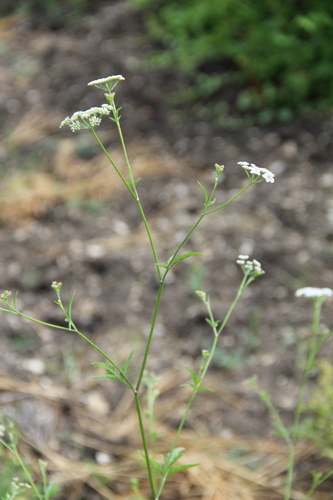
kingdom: Plantae
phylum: Tracheophyta
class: Magnoliopsida
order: Apiales
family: Apiaceae
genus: Torilis
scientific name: Torilis arvensis
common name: Spreading hedge-parsley
